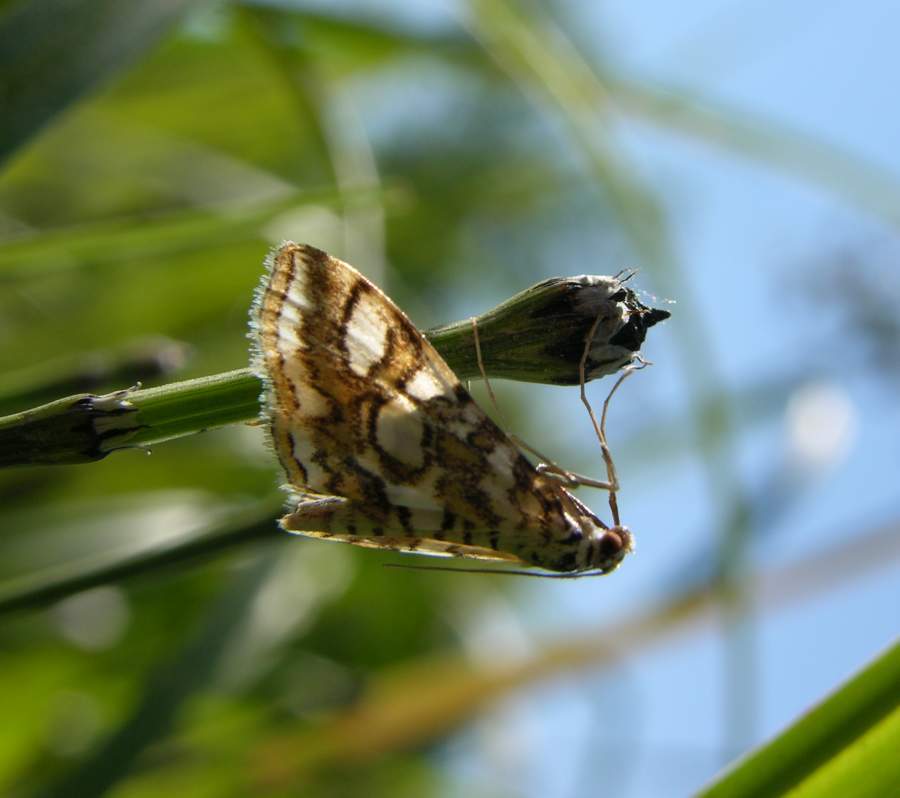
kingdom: Animalia
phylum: Arthropoda
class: Insecta
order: Lepidoptera
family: Crambidae
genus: Elophila
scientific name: Elophila ekthlipsis
